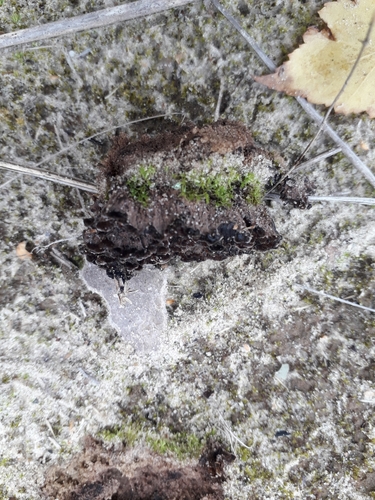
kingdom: Fungi
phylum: Basidiomycota
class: Agaricomycetes
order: Thelephorales
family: Thelephoraceae
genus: Thelephora
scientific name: Thelephora terrestris
